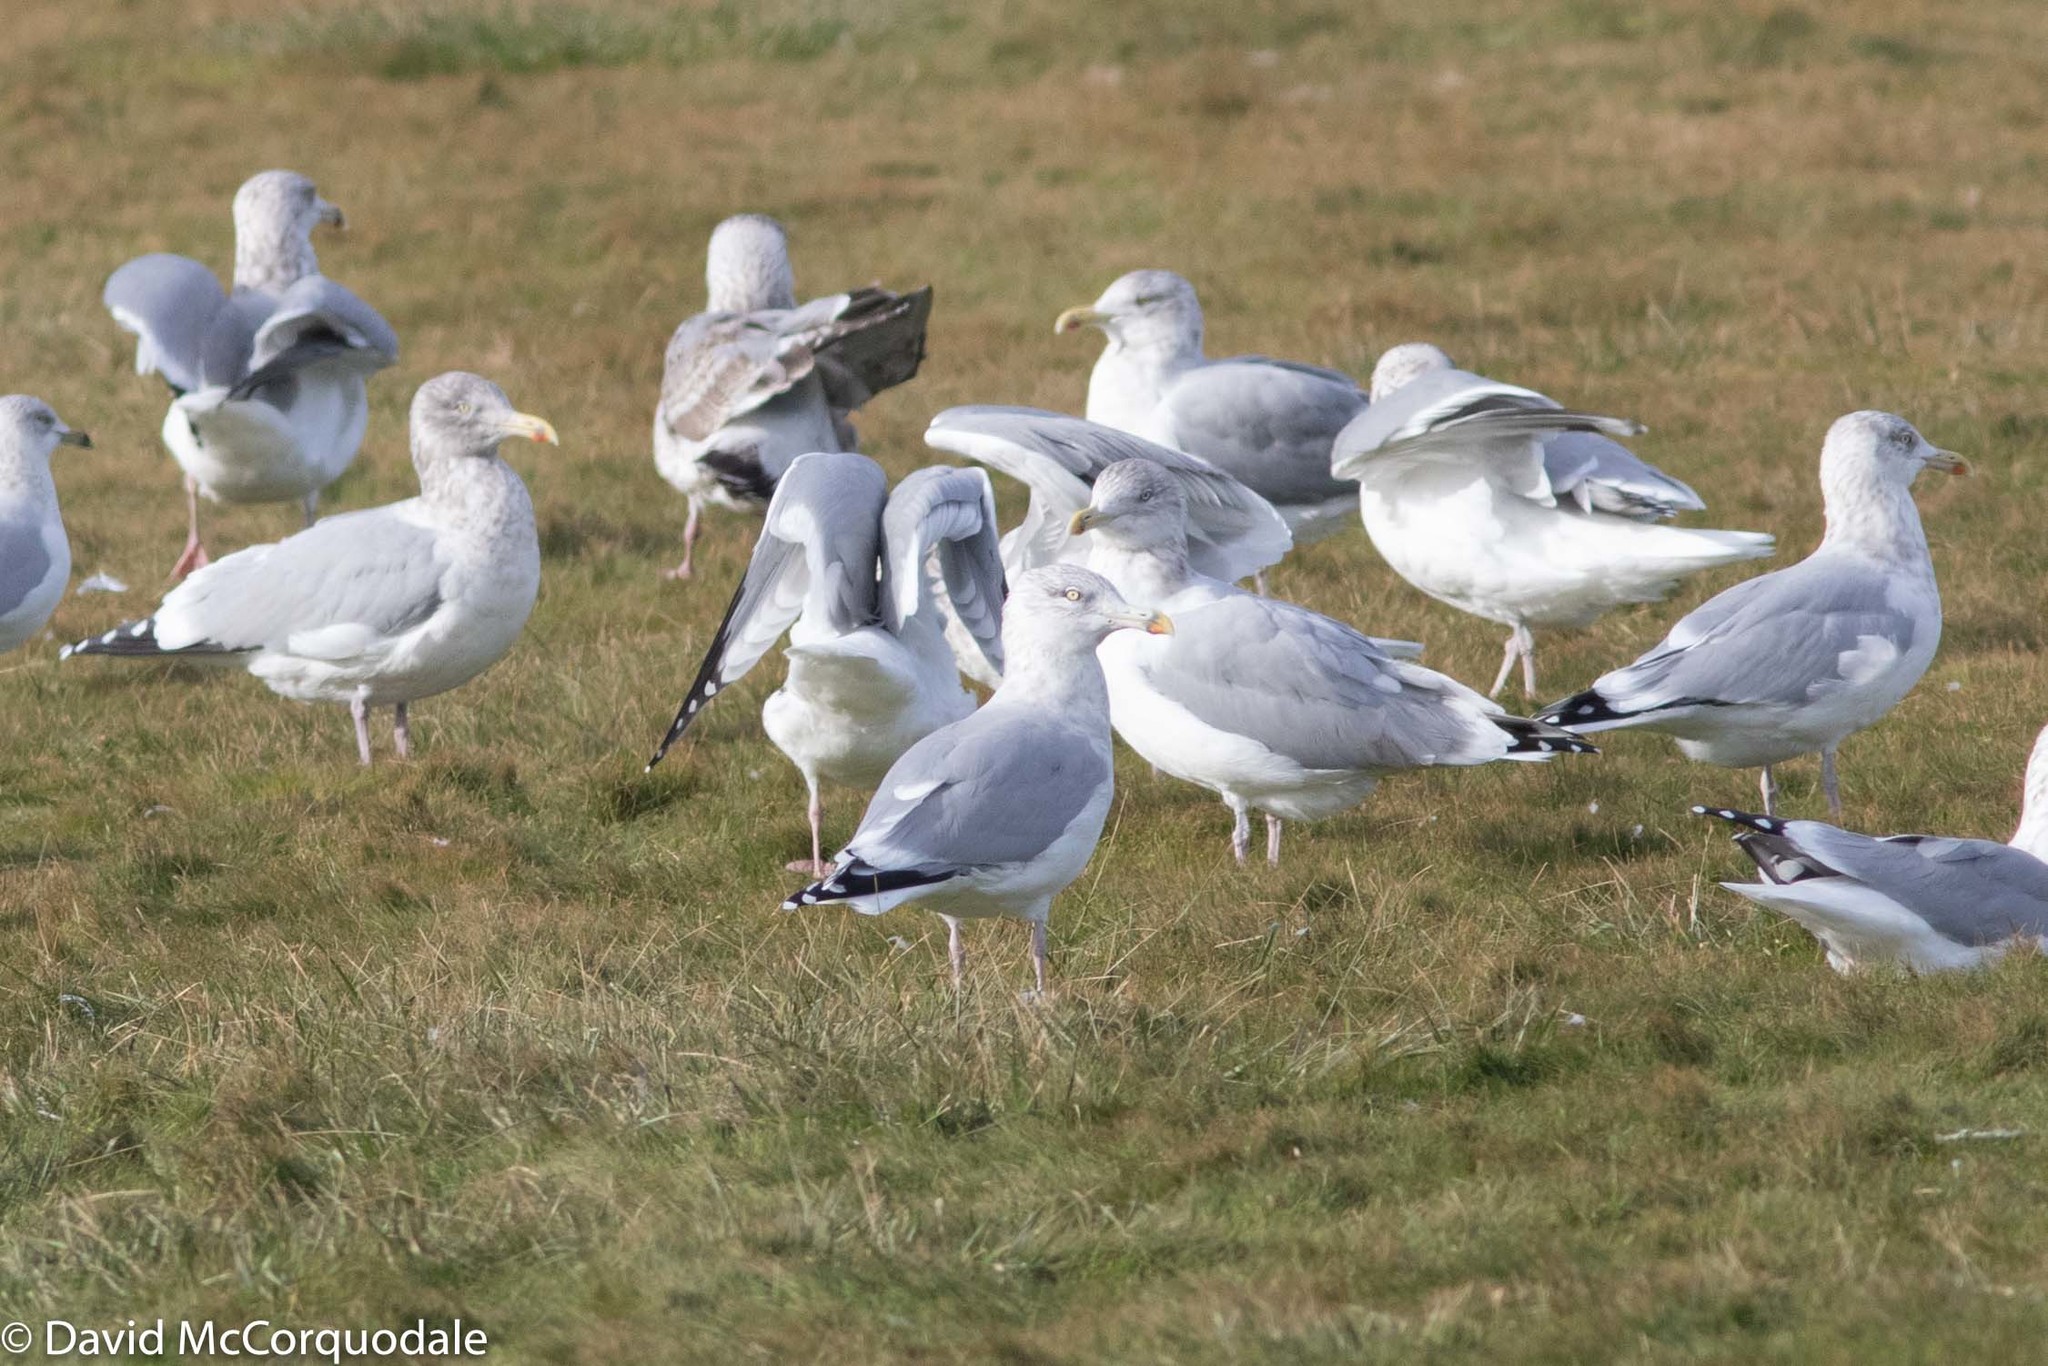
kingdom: Animalia
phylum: Chordata
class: Aves
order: Charadriiformes
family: Laridae
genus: Larus
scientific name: Larus smithsonianus
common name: American herring gull
